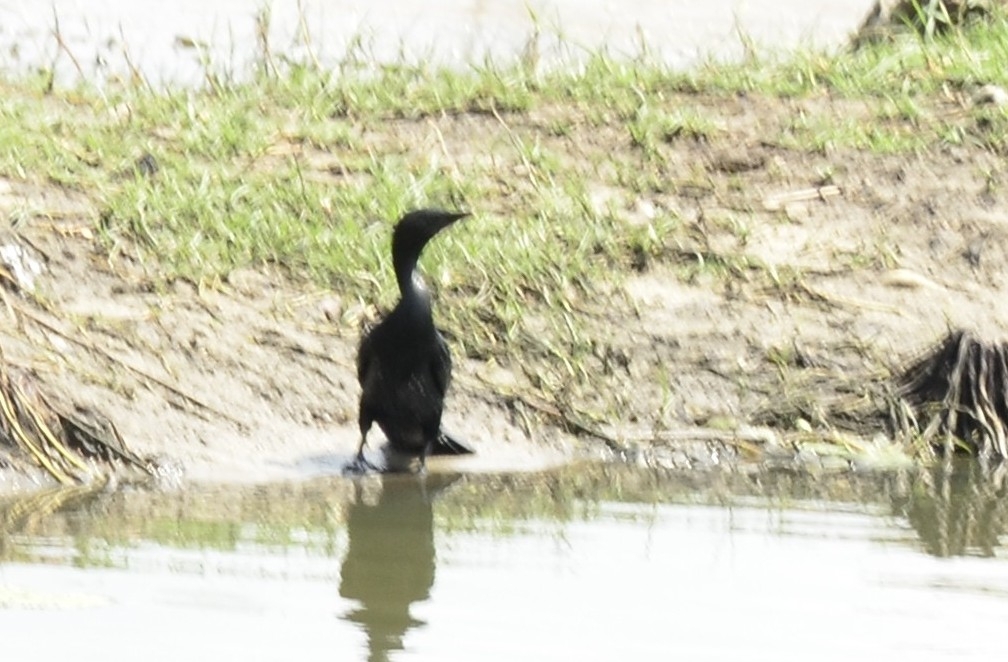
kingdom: Animalia
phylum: Chordata
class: Aves
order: Suliformes
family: Phalacrocoracidae
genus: Microcarbo
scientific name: Microcarbo niger
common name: Little cormorant
